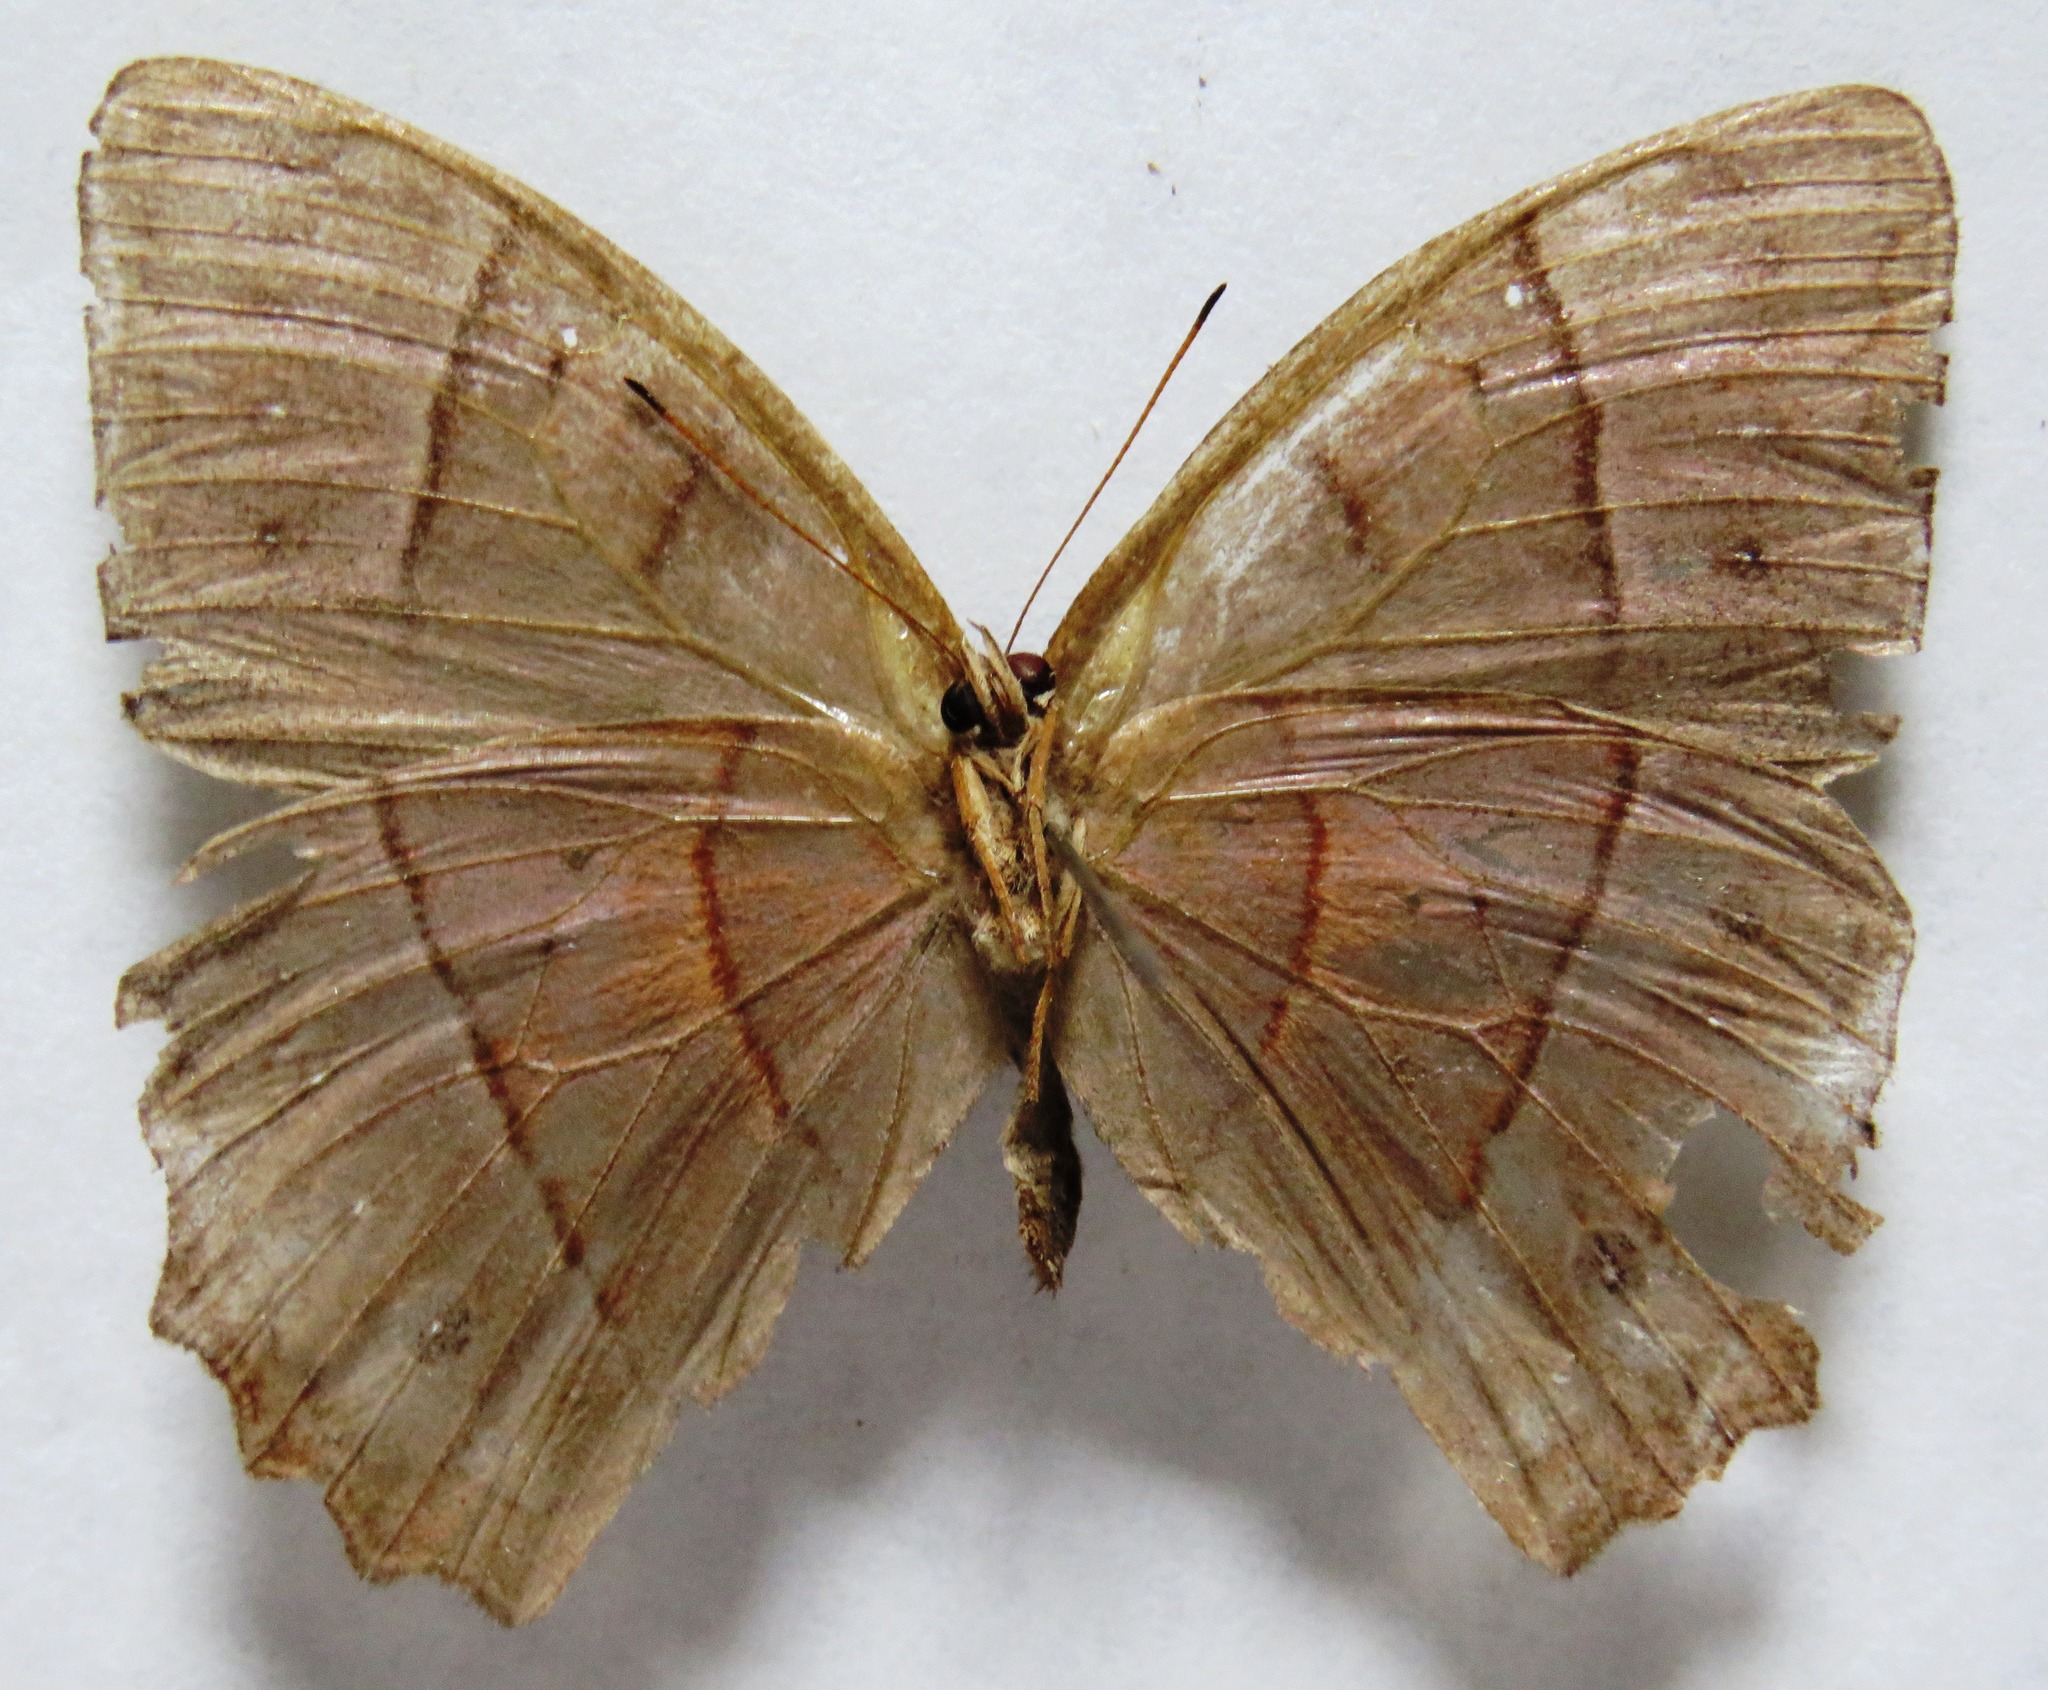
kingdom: Animalia
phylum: Arthropoda
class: Insecta
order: Lepidoptera
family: Nymphalidae
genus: Taygetis
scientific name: Taygetis salvini
